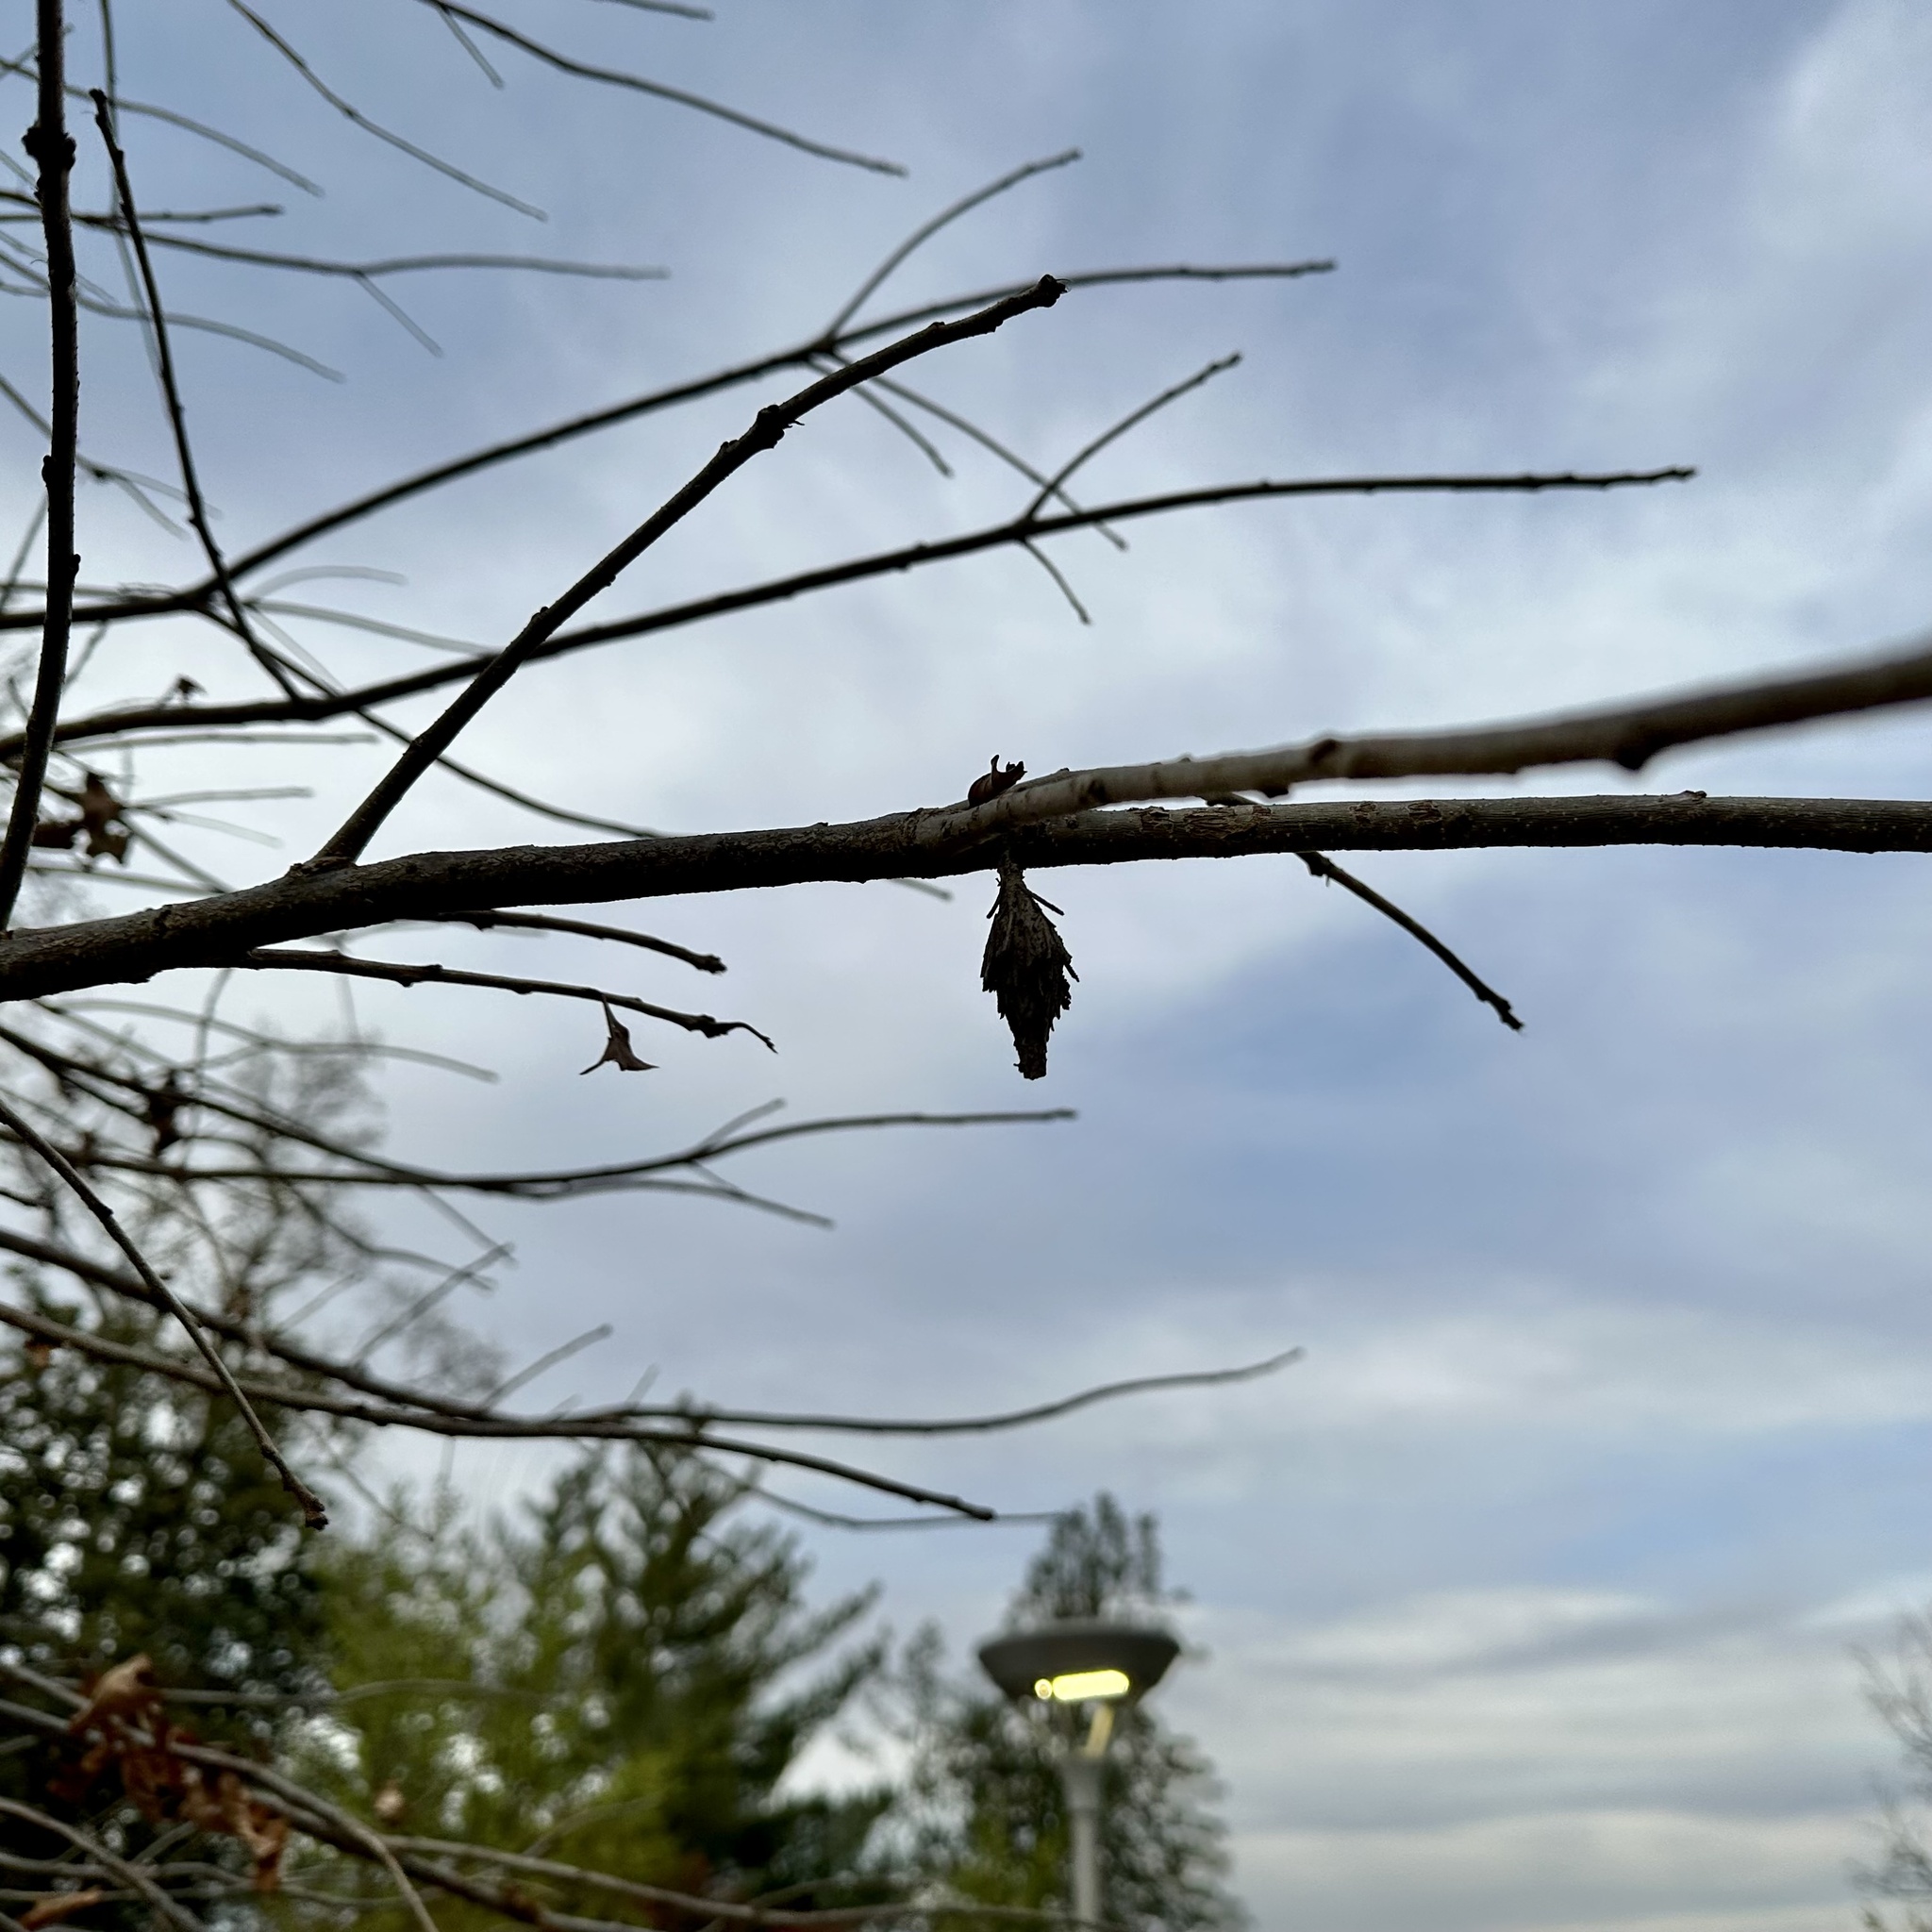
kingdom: Animalia
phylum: Arthropoda
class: Insecta
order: Lepidoptera
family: Psychidae
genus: Thyridopteryx
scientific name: Thyridopteryx ephemeraeformis
